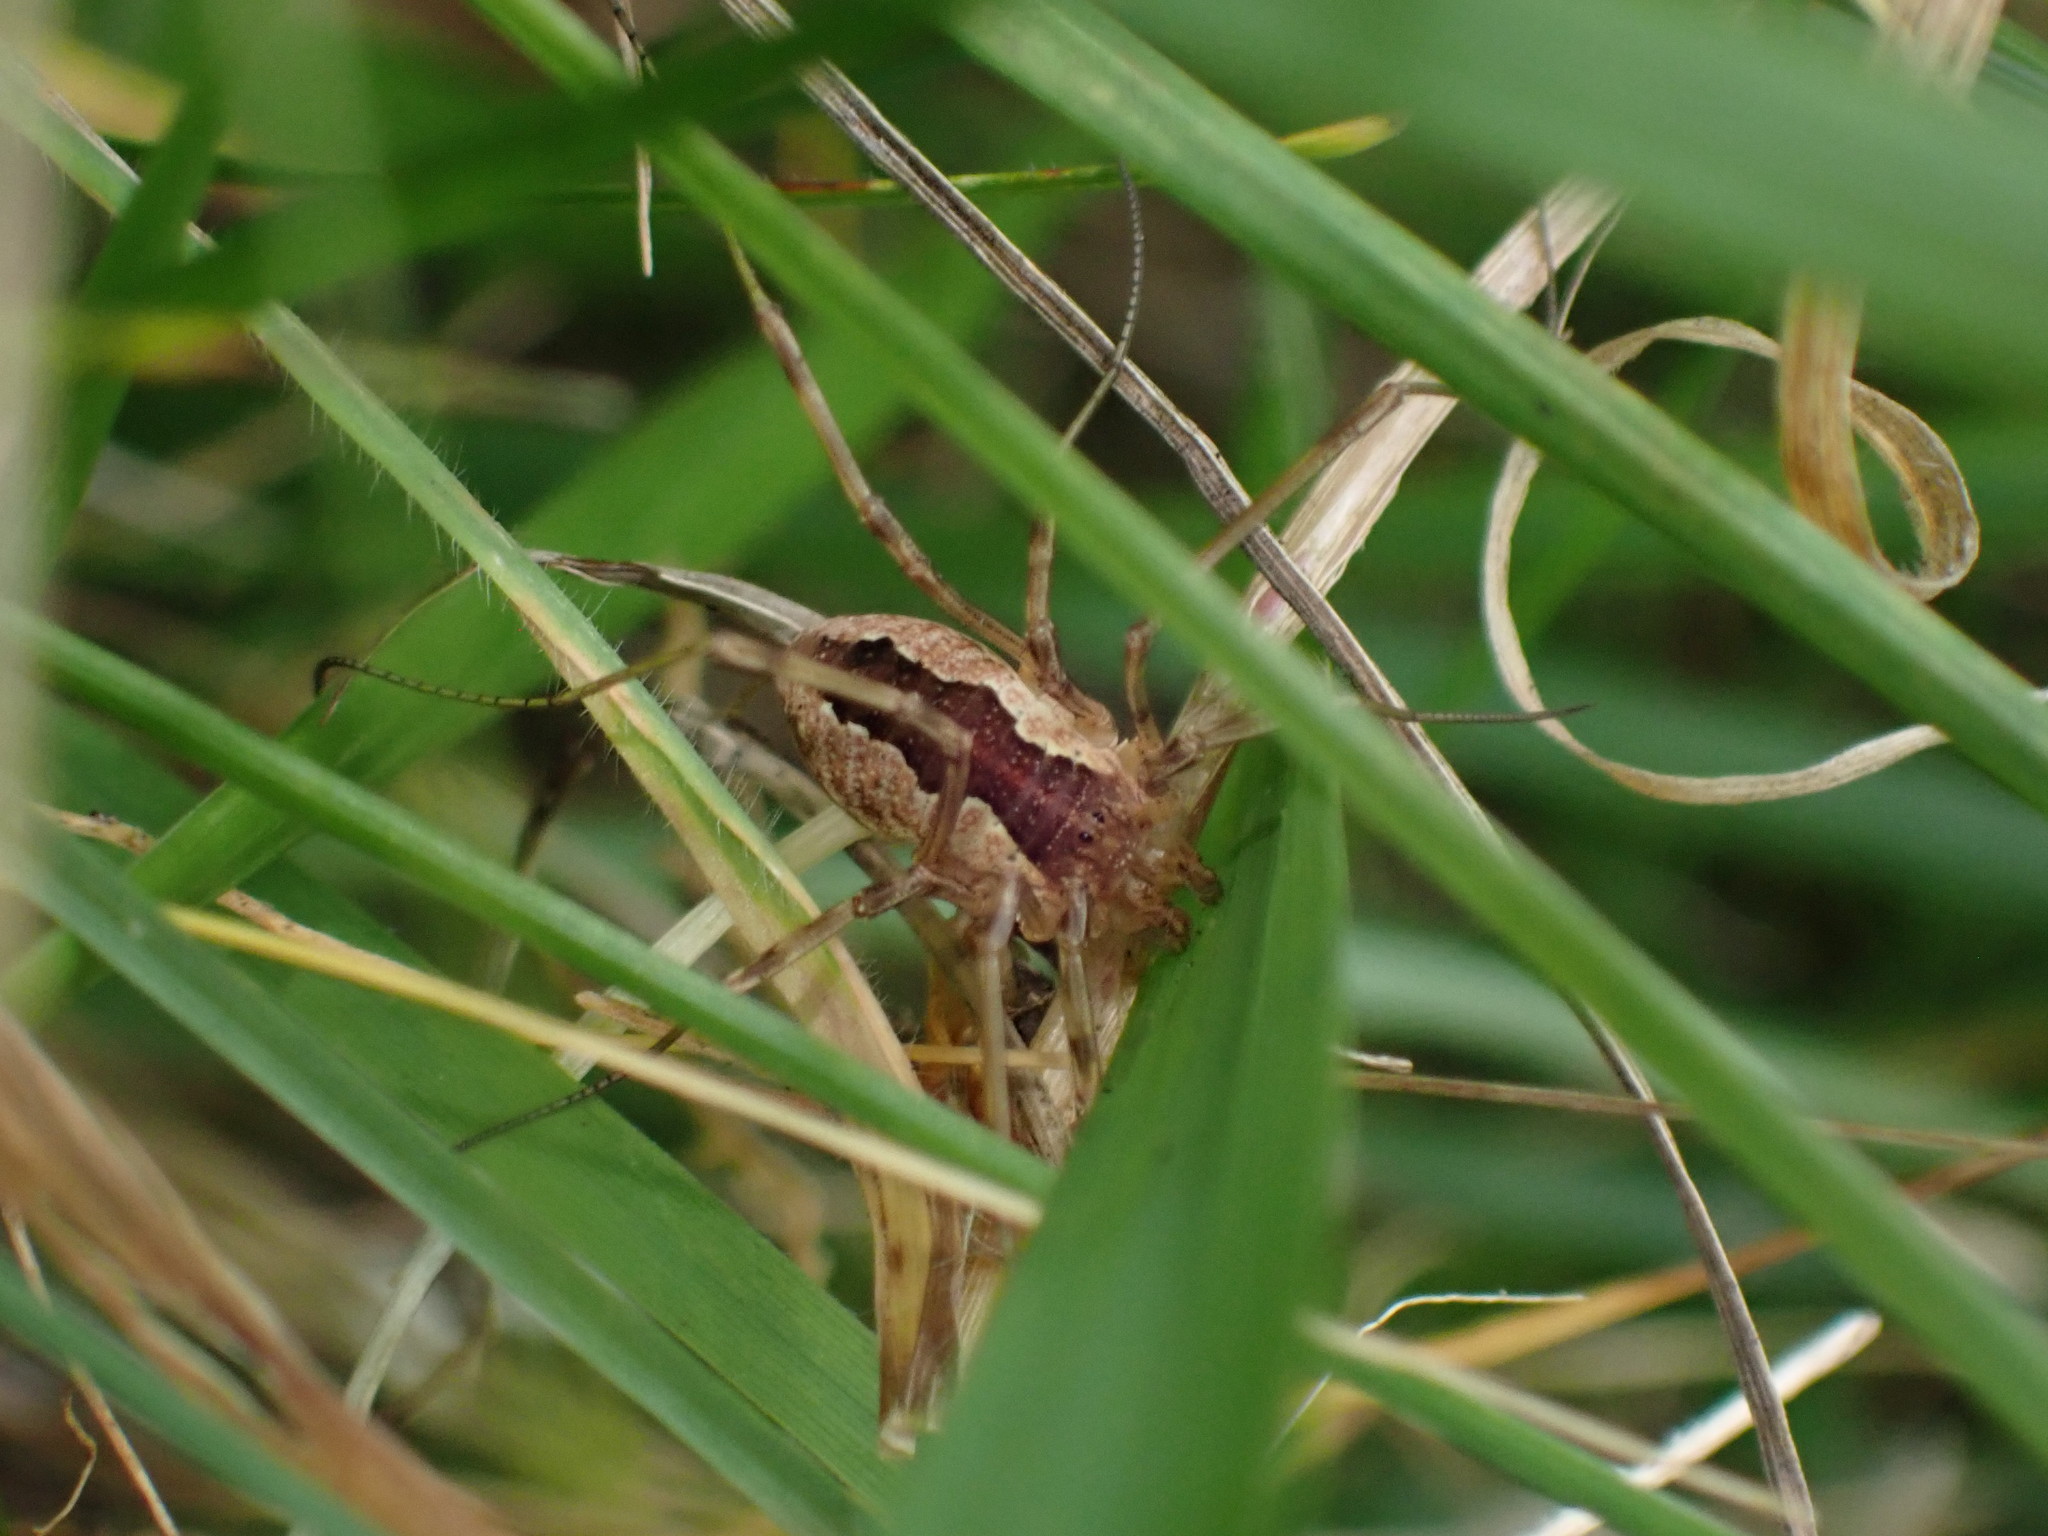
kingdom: Animalia
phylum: Arthropoda
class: Arachnida
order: Opiliones
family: Phalangiidae
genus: Mitopus
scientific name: Mitopus morio
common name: Saddleback harvestman
